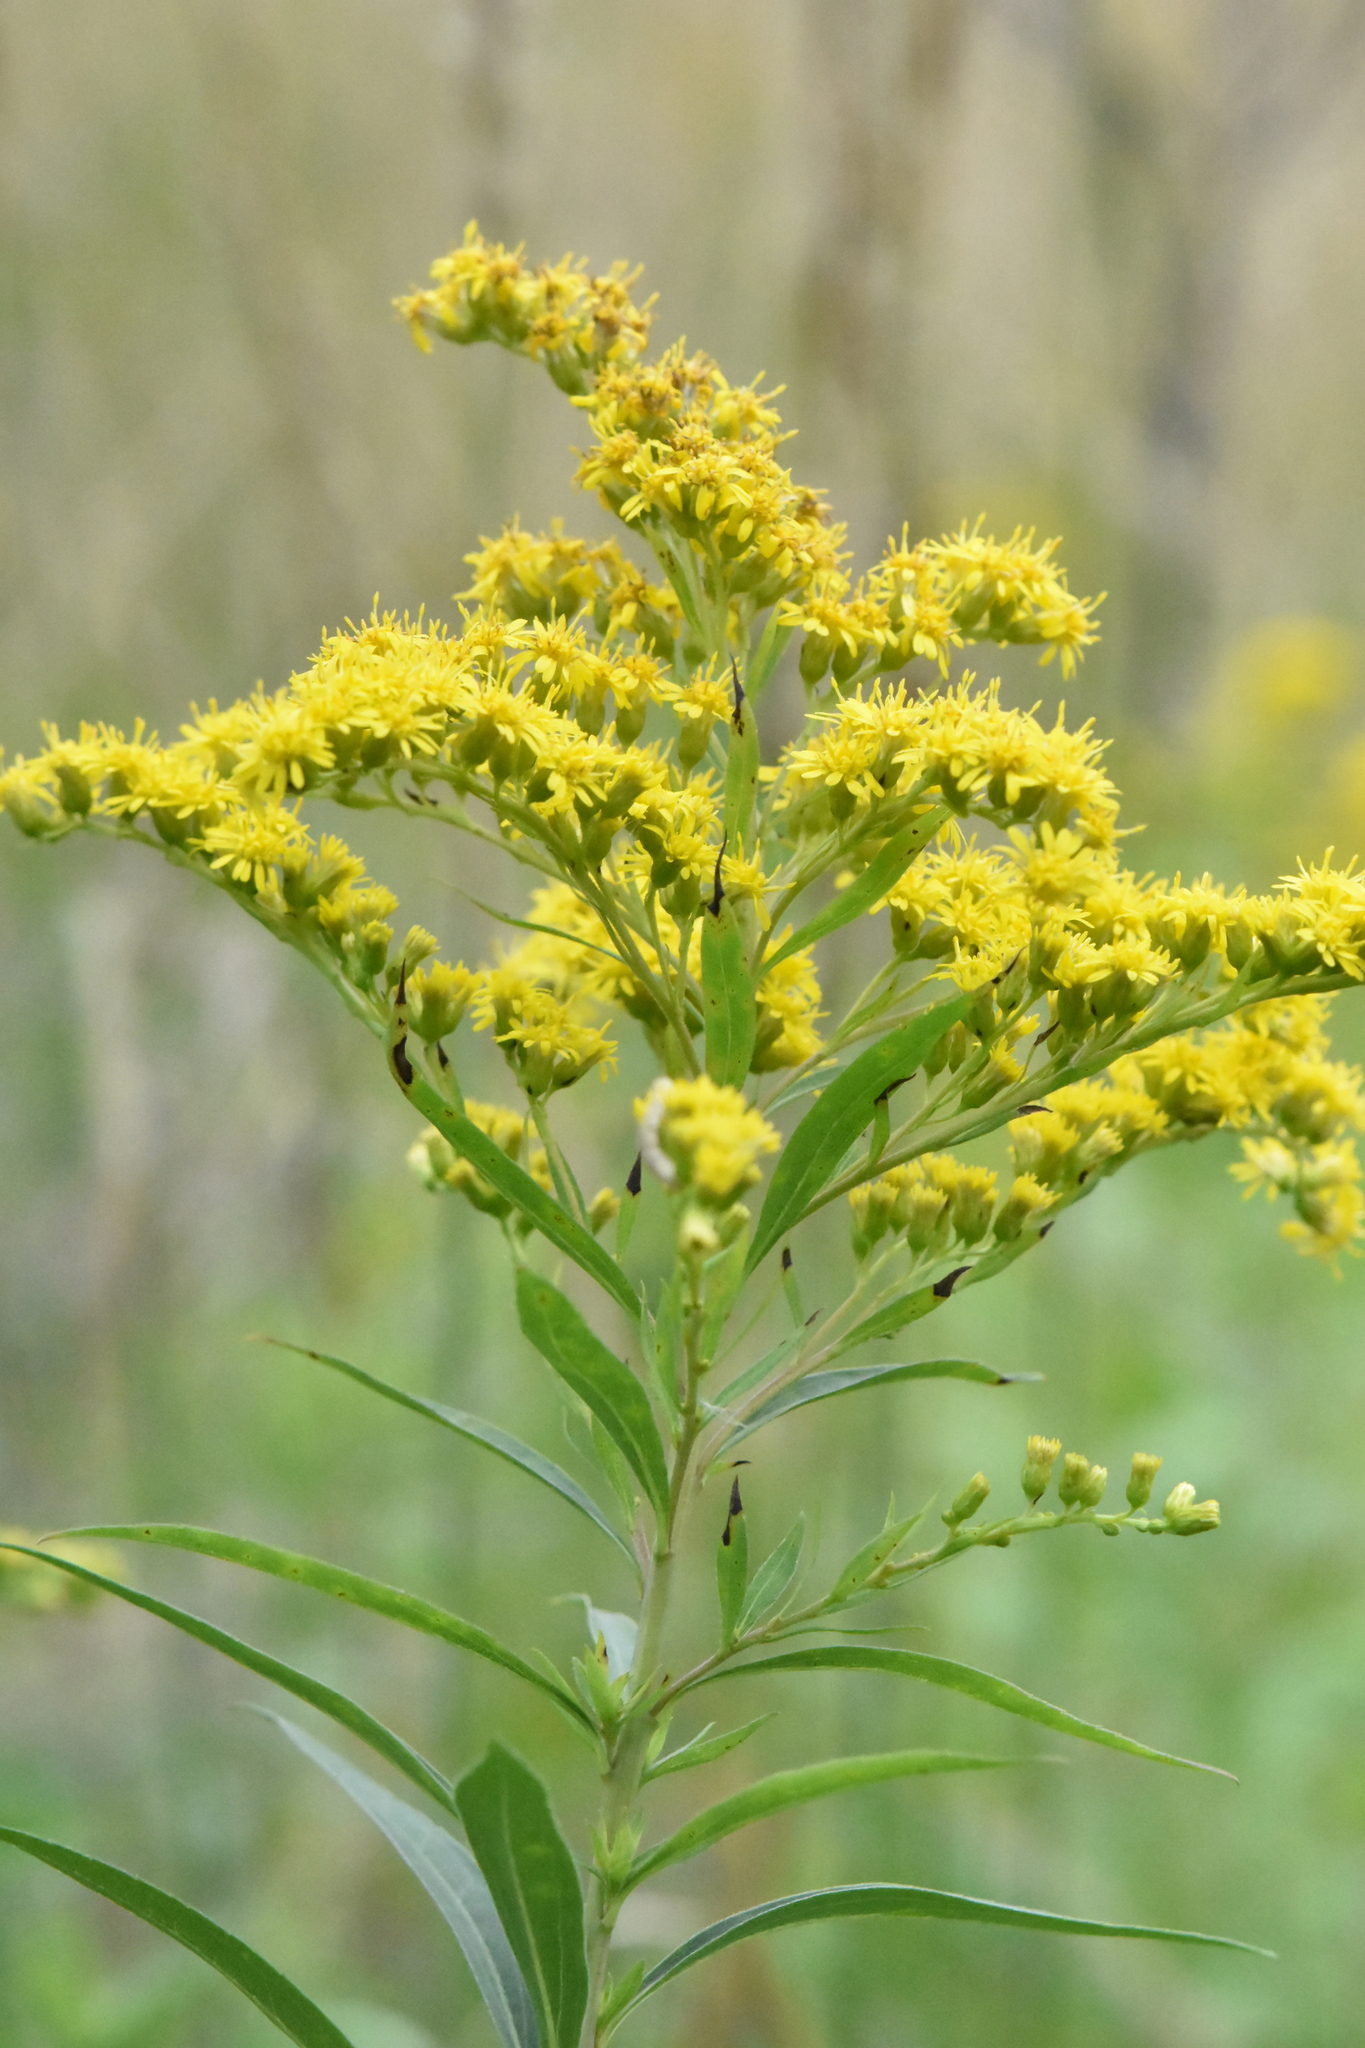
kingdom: Plantae
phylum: Tracheophyta
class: Magnoliopsida
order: Asterales
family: Asteraceae
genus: Solidago
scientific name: Solidago gigantea
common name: Giant goldenrod
